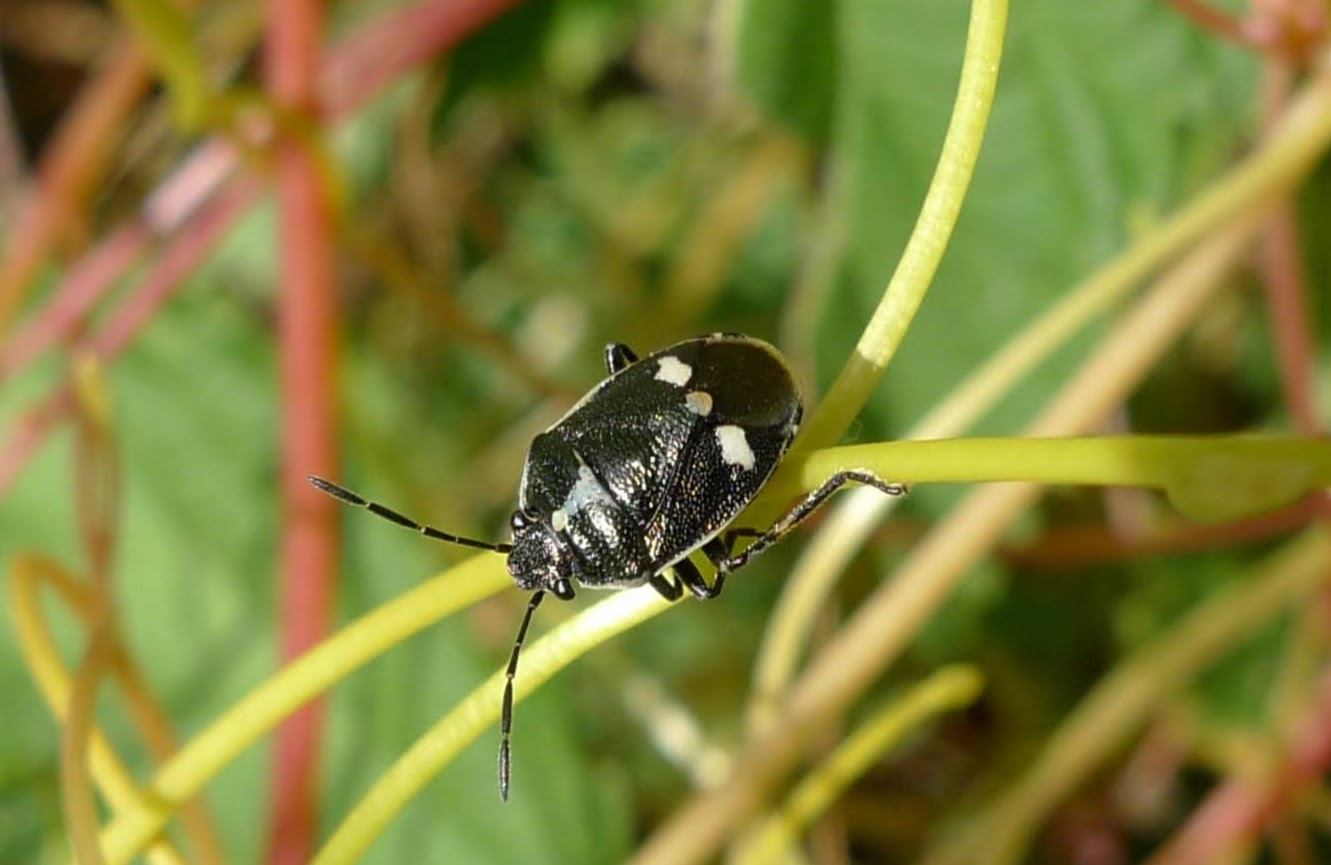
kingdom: Animalia
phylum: Arthropoda
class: Insecta
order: Hemiptera
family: Pentatomidae
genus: Eurydema
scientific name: Eurydema oleracea
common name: Cabbage bug
